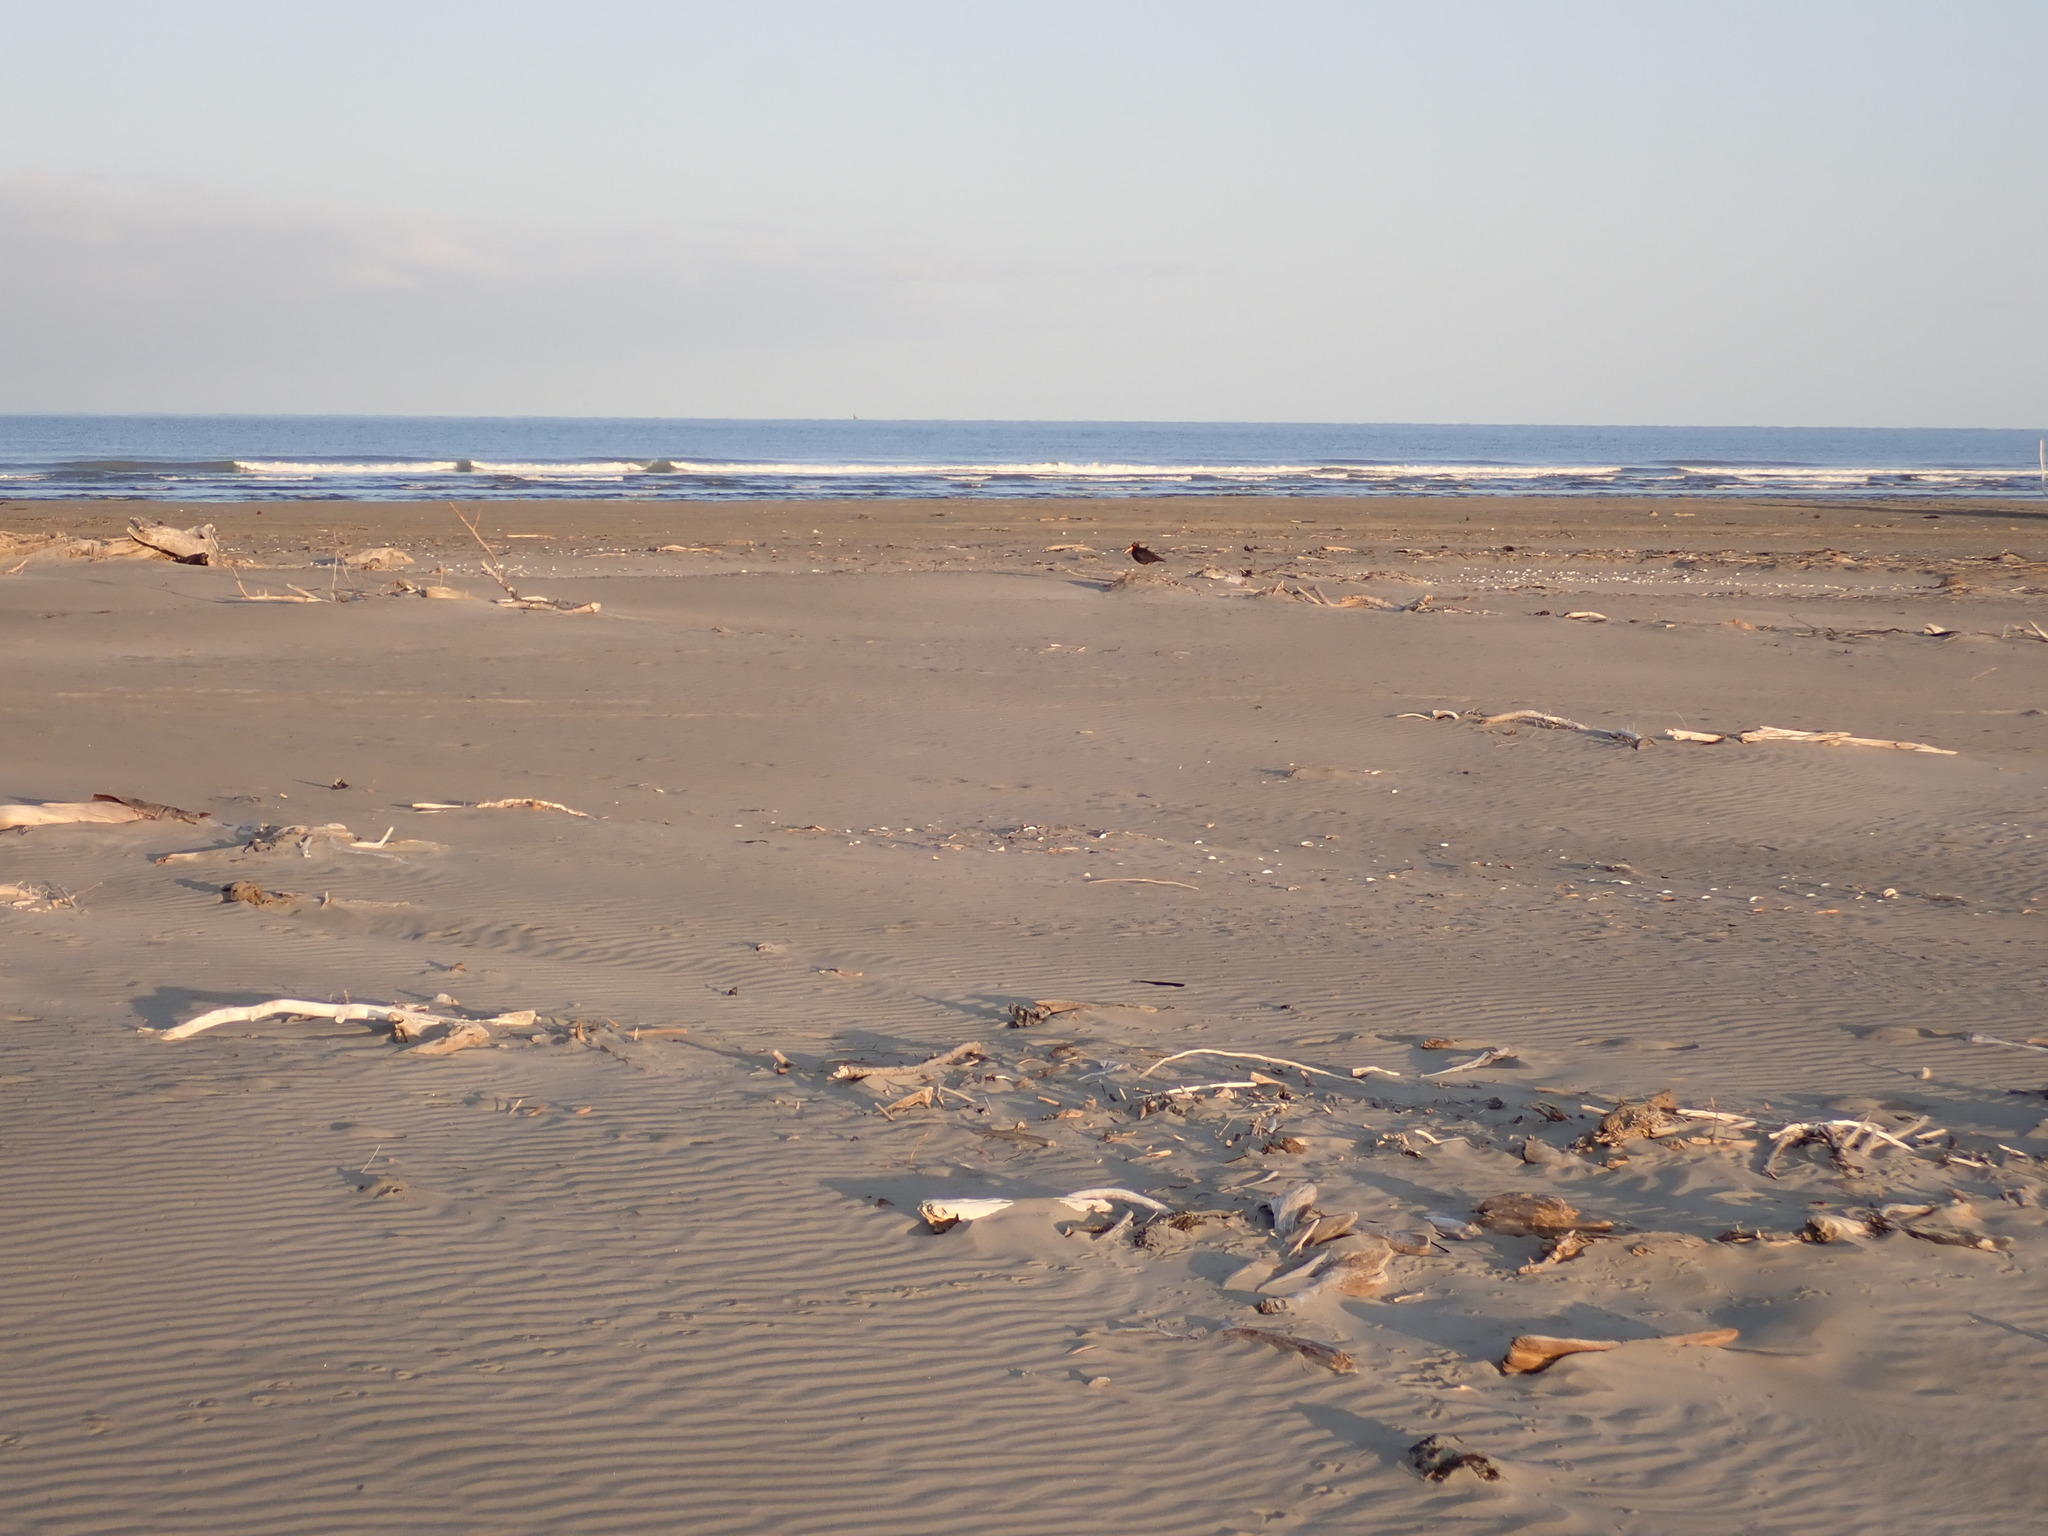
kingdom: Animalia
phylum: Chordata
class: Aves
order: Charadriiformes
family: Haematopodidae
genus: Haematopus
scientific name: Haematopus unicolor
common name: Variable oystercatcher
